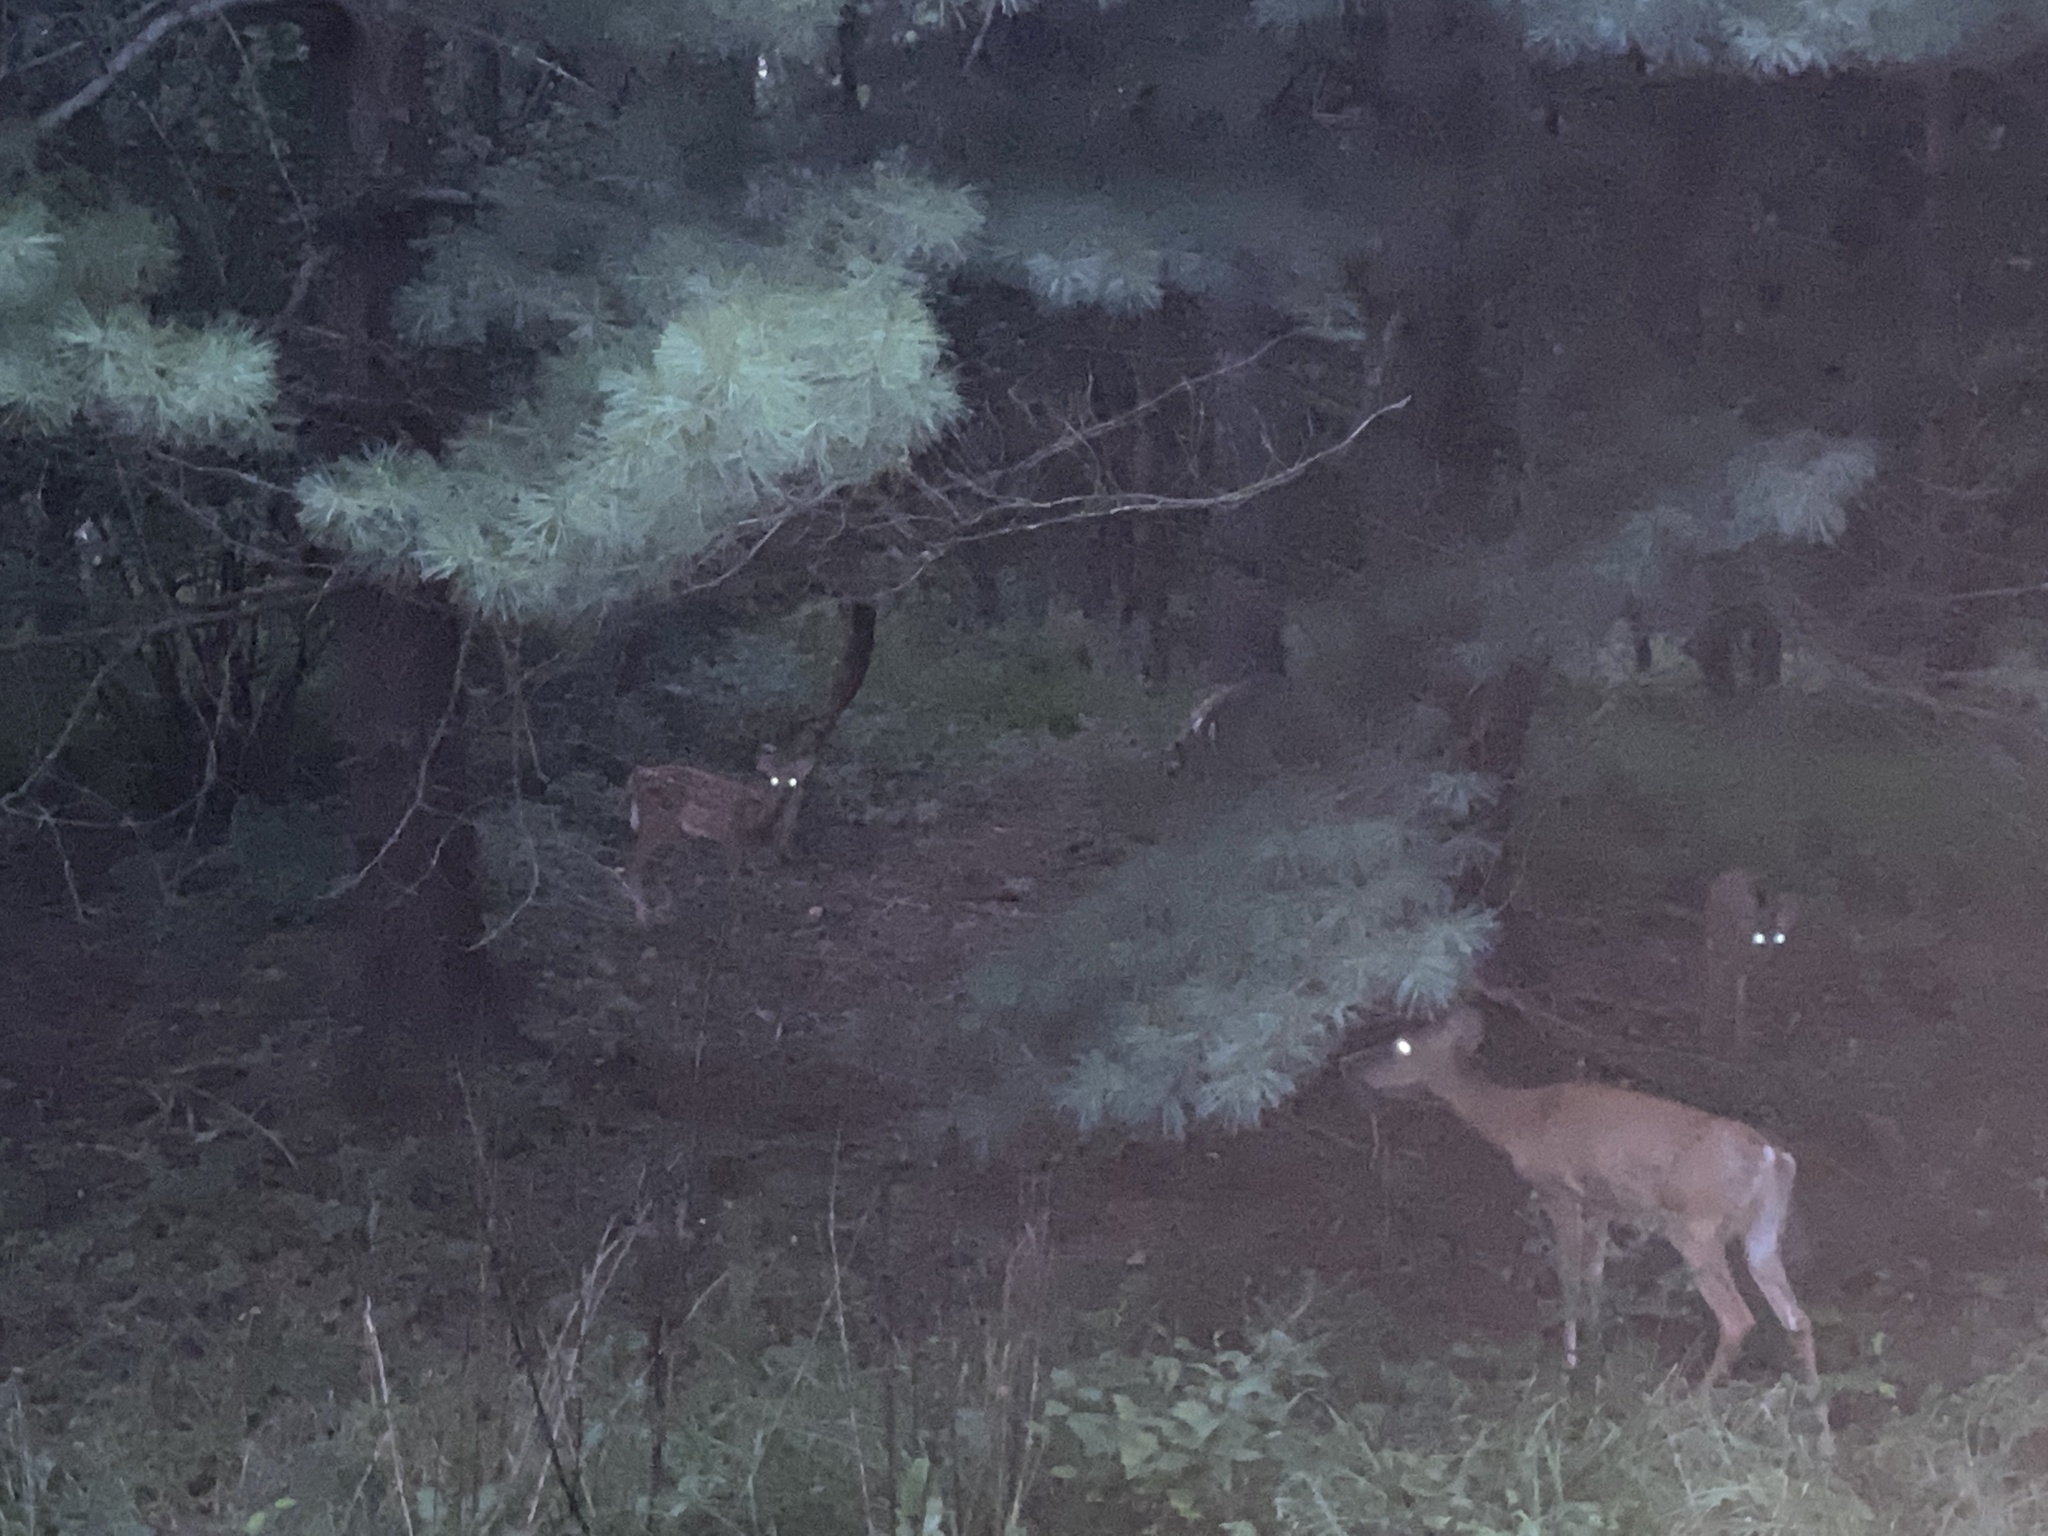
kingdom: Animalia
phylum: Chordata
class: Mammalia
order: Artiodactyla
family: Cervidae
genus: Odocoileus
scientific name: Odocoileus virginianus
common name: White-tailed deer
